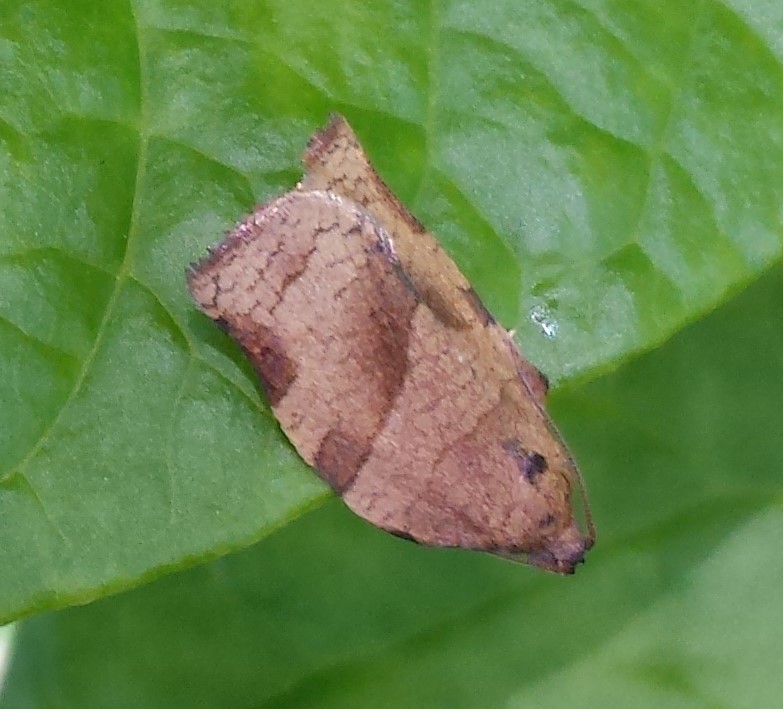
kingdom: Animalia
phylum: Arthropoda
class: Insecta
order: Lepidoptera
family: Tortricidae
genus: Choristoneura
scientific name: Choristoneura rosaceana
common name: Oblique-banded leafroller moth
